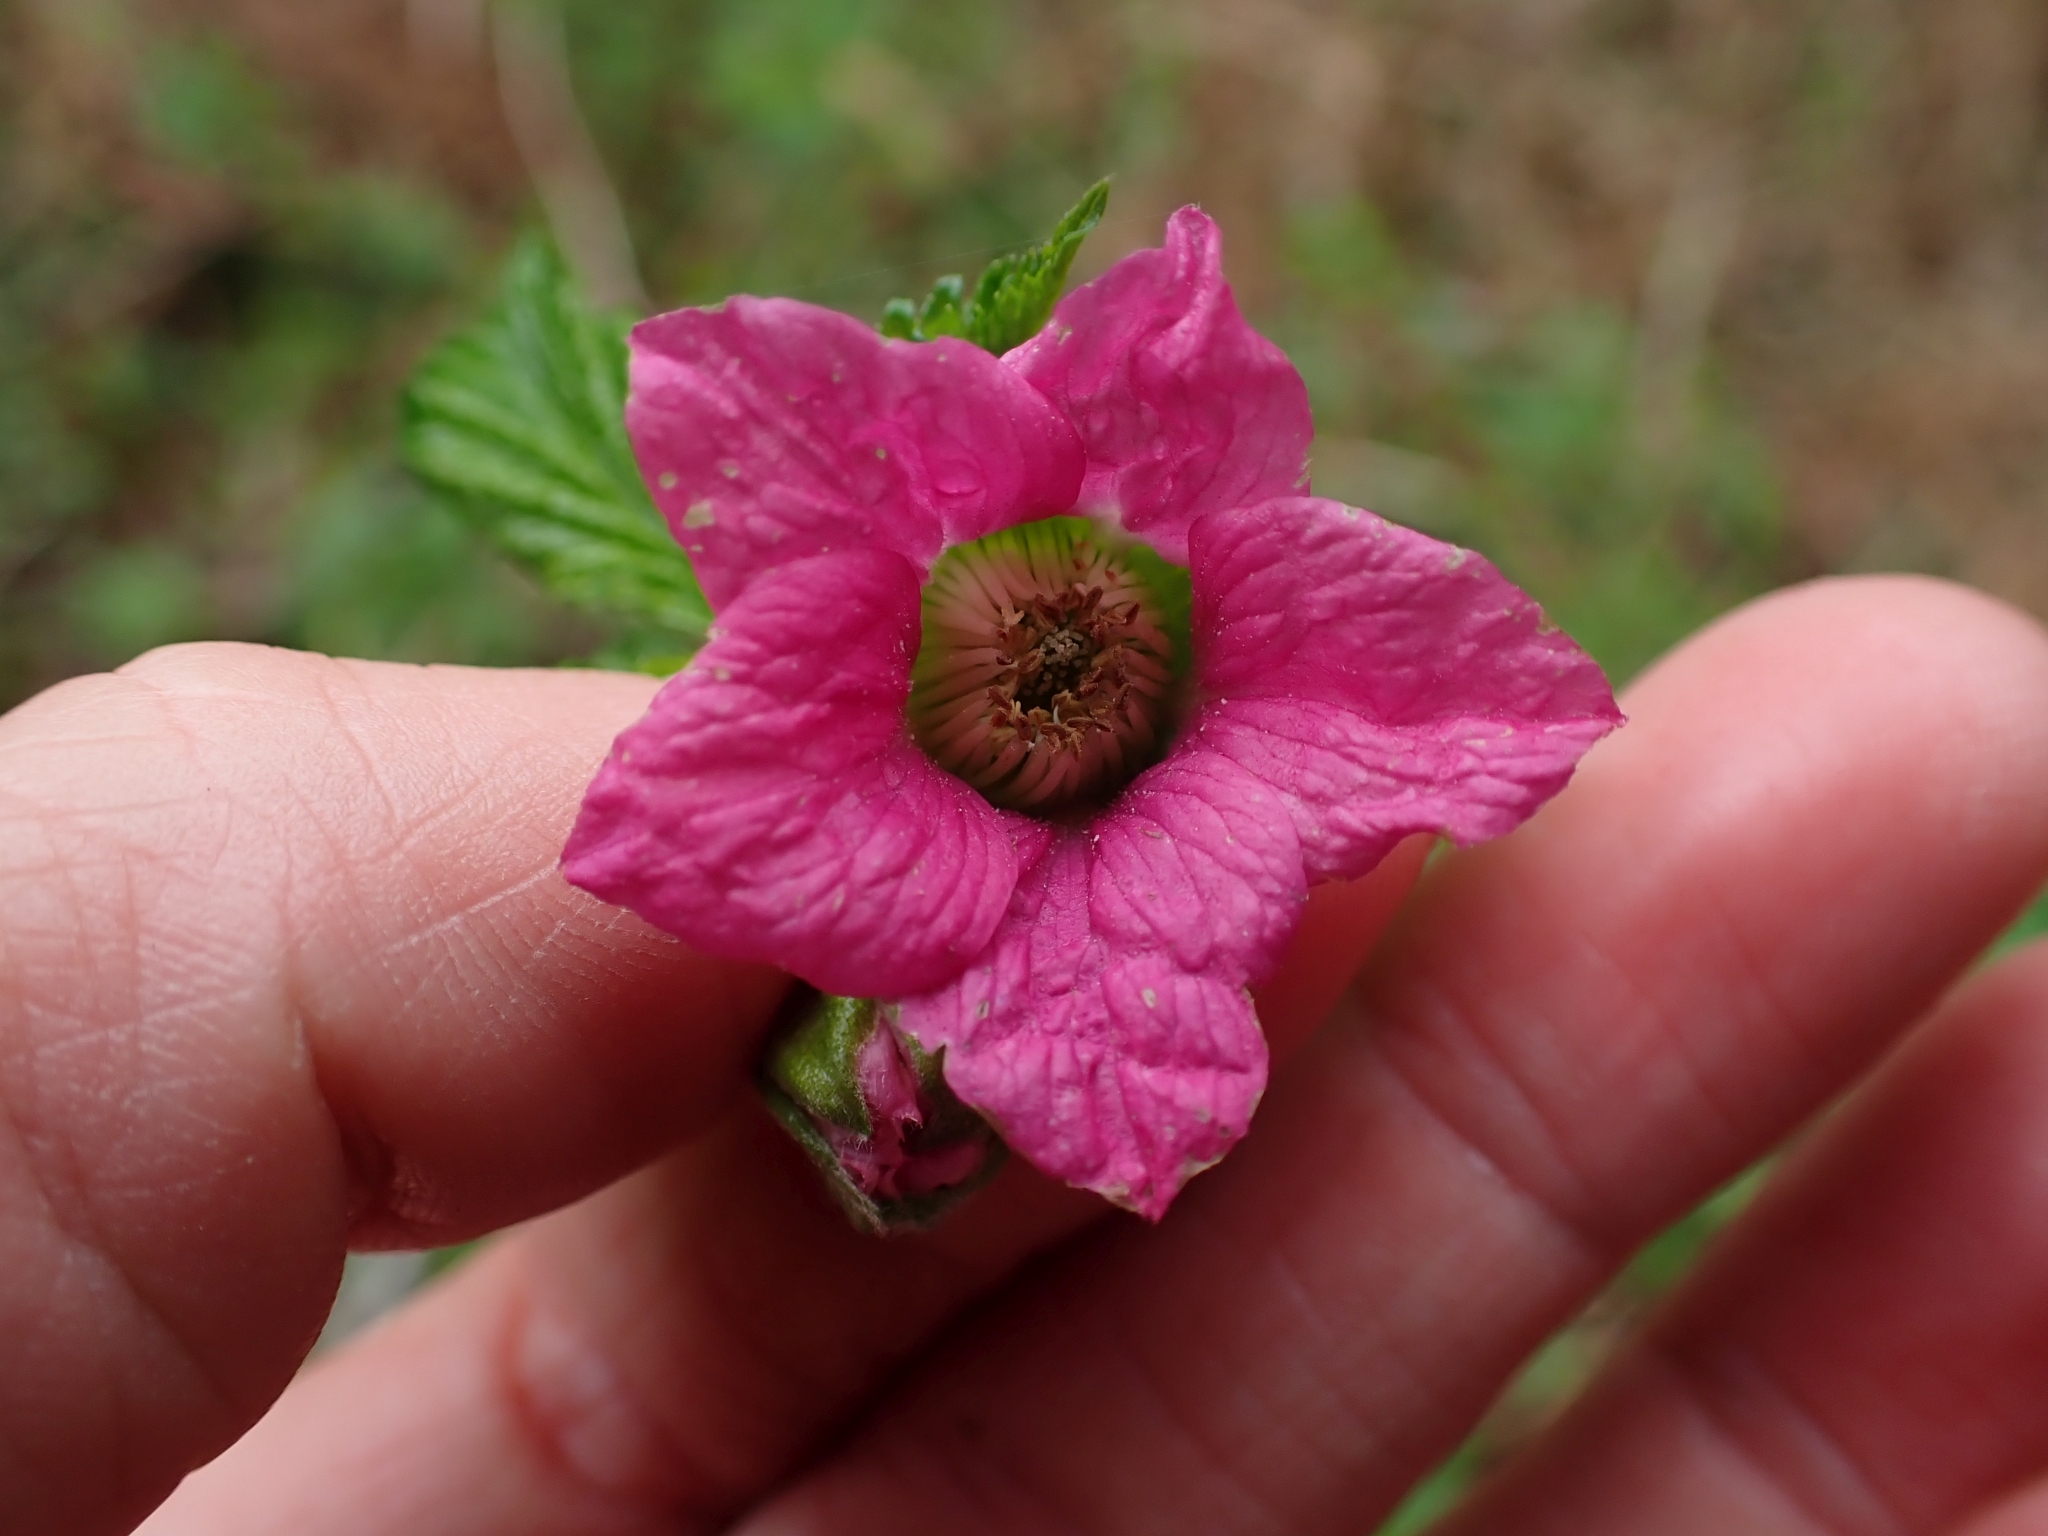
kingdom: Plantae
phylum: Tracheophyta
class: Magnoliopsida
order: Rosales
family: Rosaceae
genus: Rubus
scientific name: Rubus spectabilis
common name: Salmonberry
